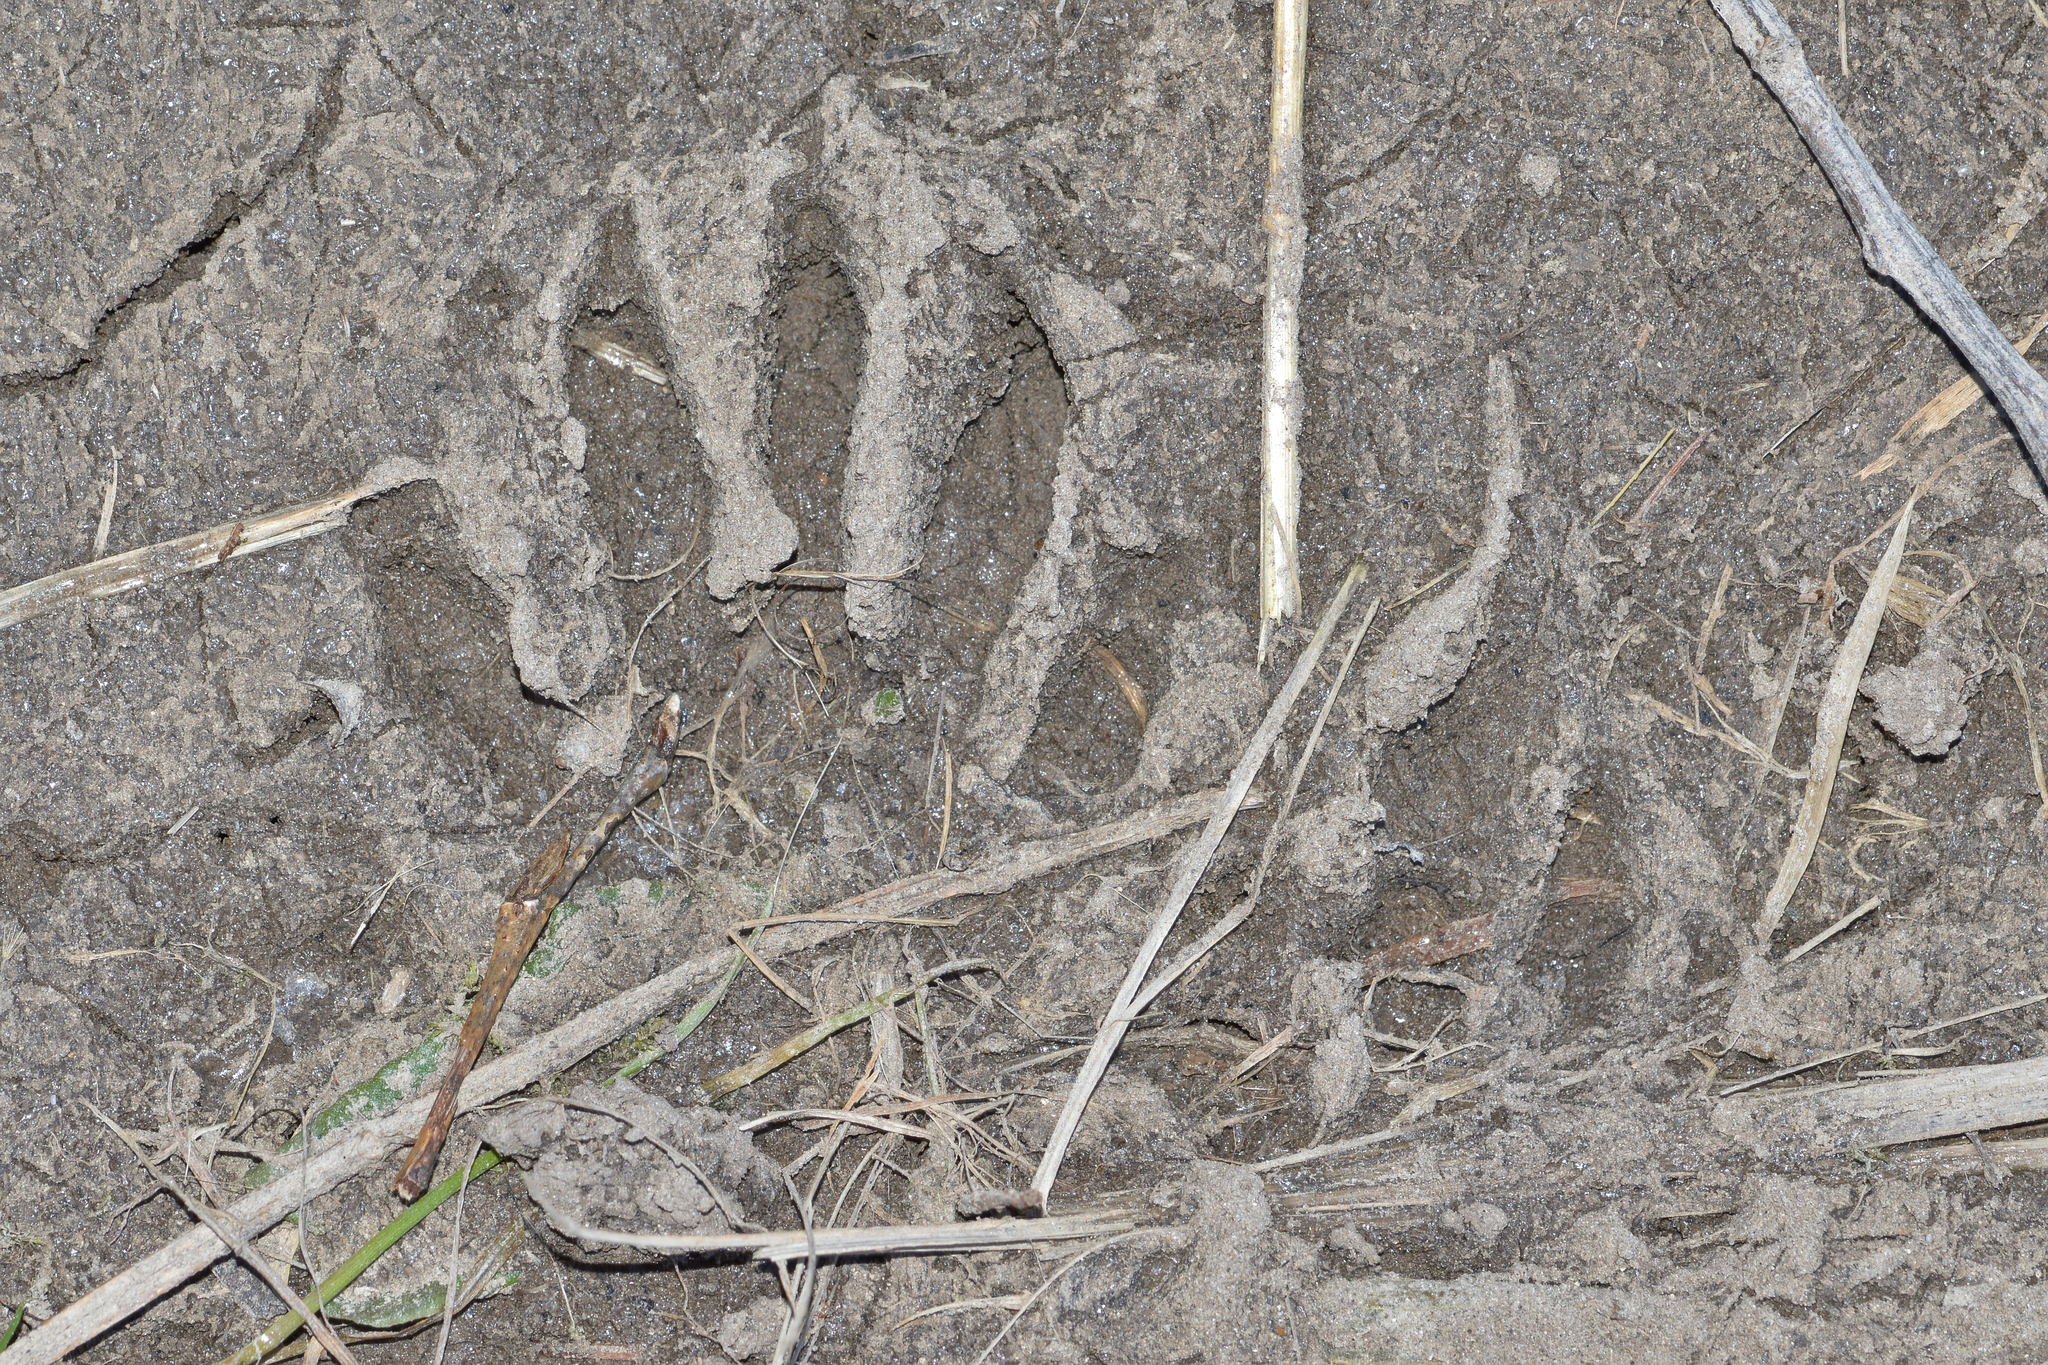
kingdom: Animalia
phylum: Chordata
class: Mammalia
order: Carnivora
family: Procyonidae
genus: Procyon
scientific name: Procyon lotor
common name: Raccoon
